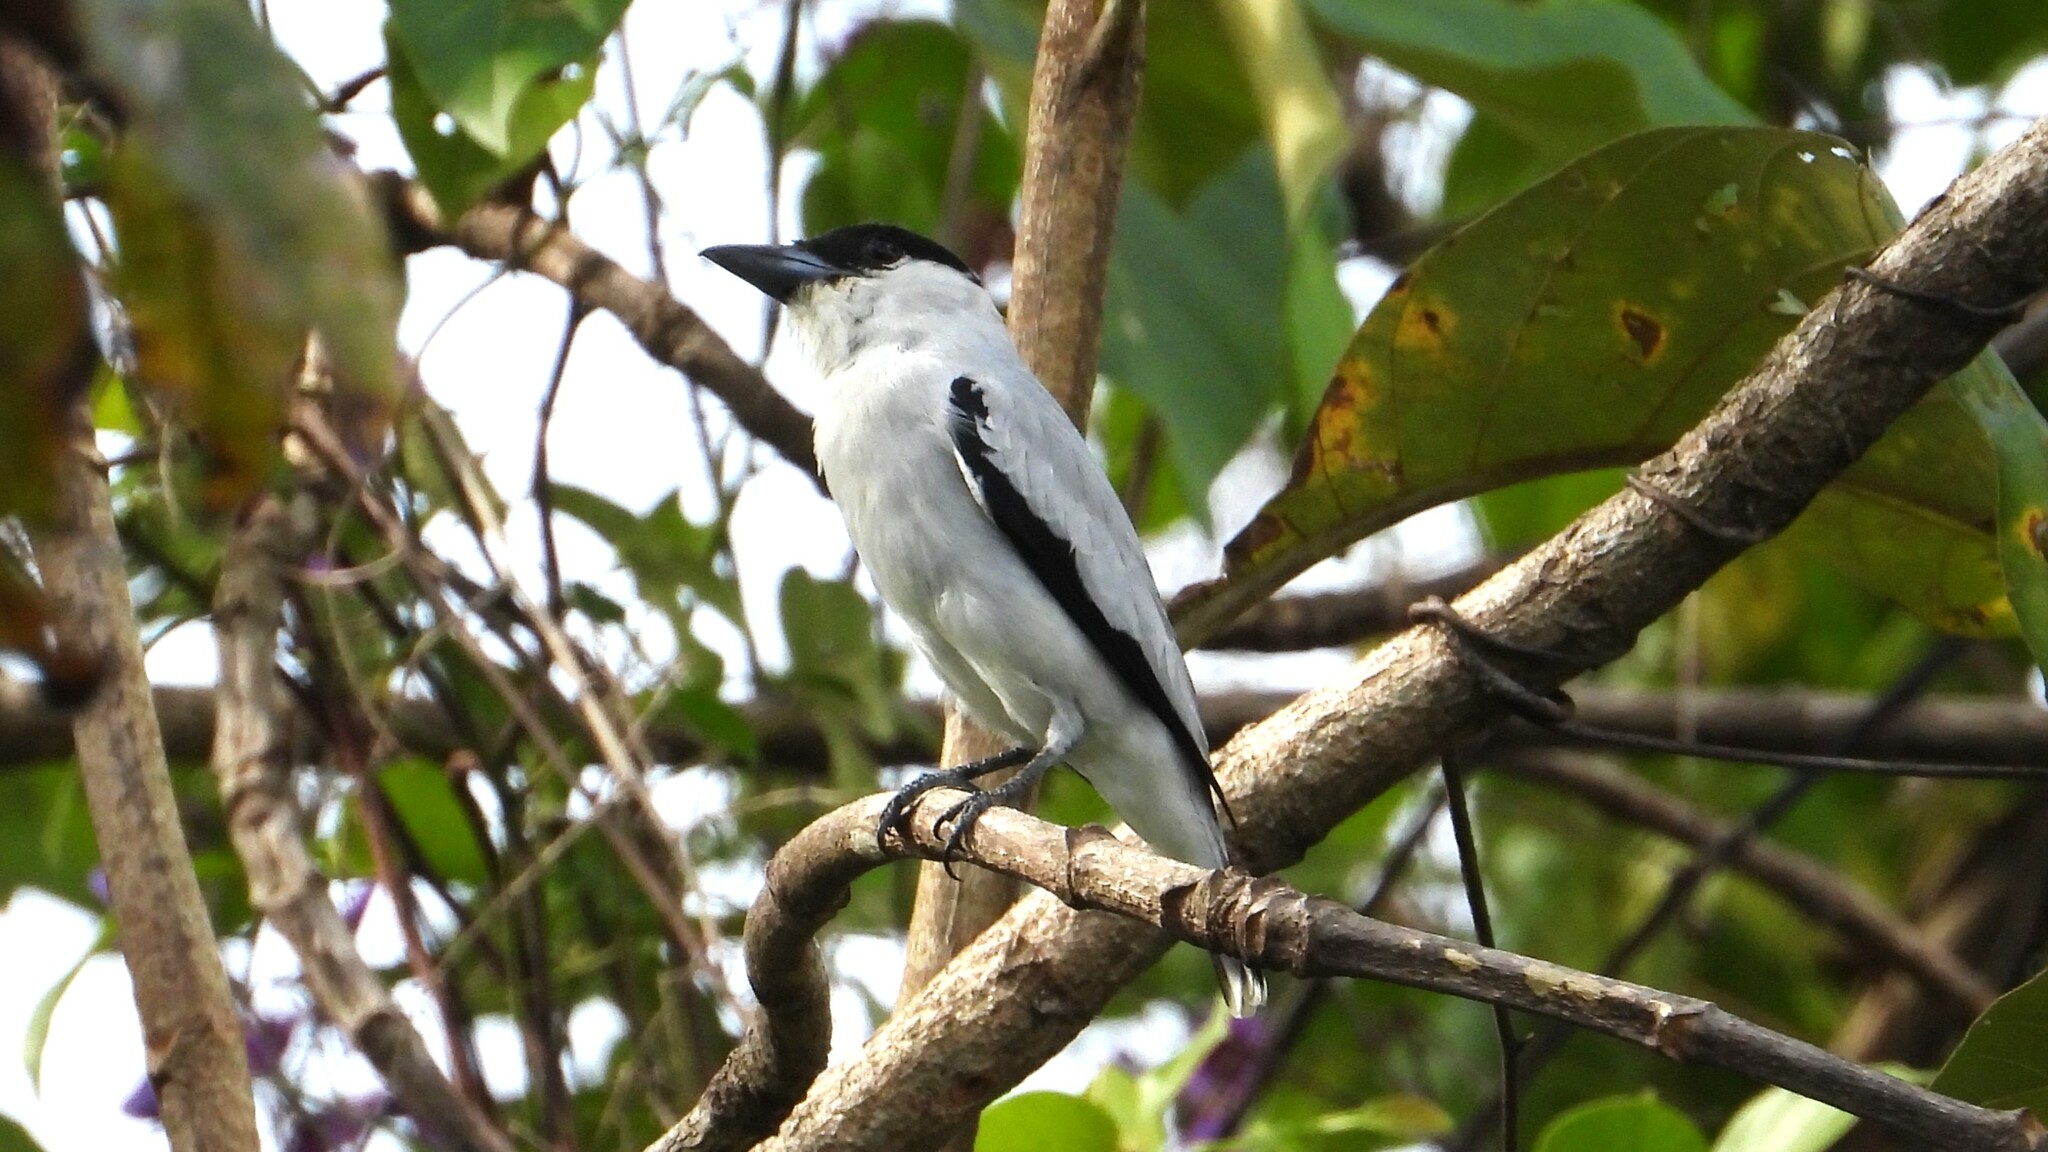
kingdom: Animalia
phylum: Chordata
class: Aves
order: Passeriformes
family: Cotingidae
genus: Tityra
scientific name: Tityra inquisitor
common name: Black-crowned tityra
